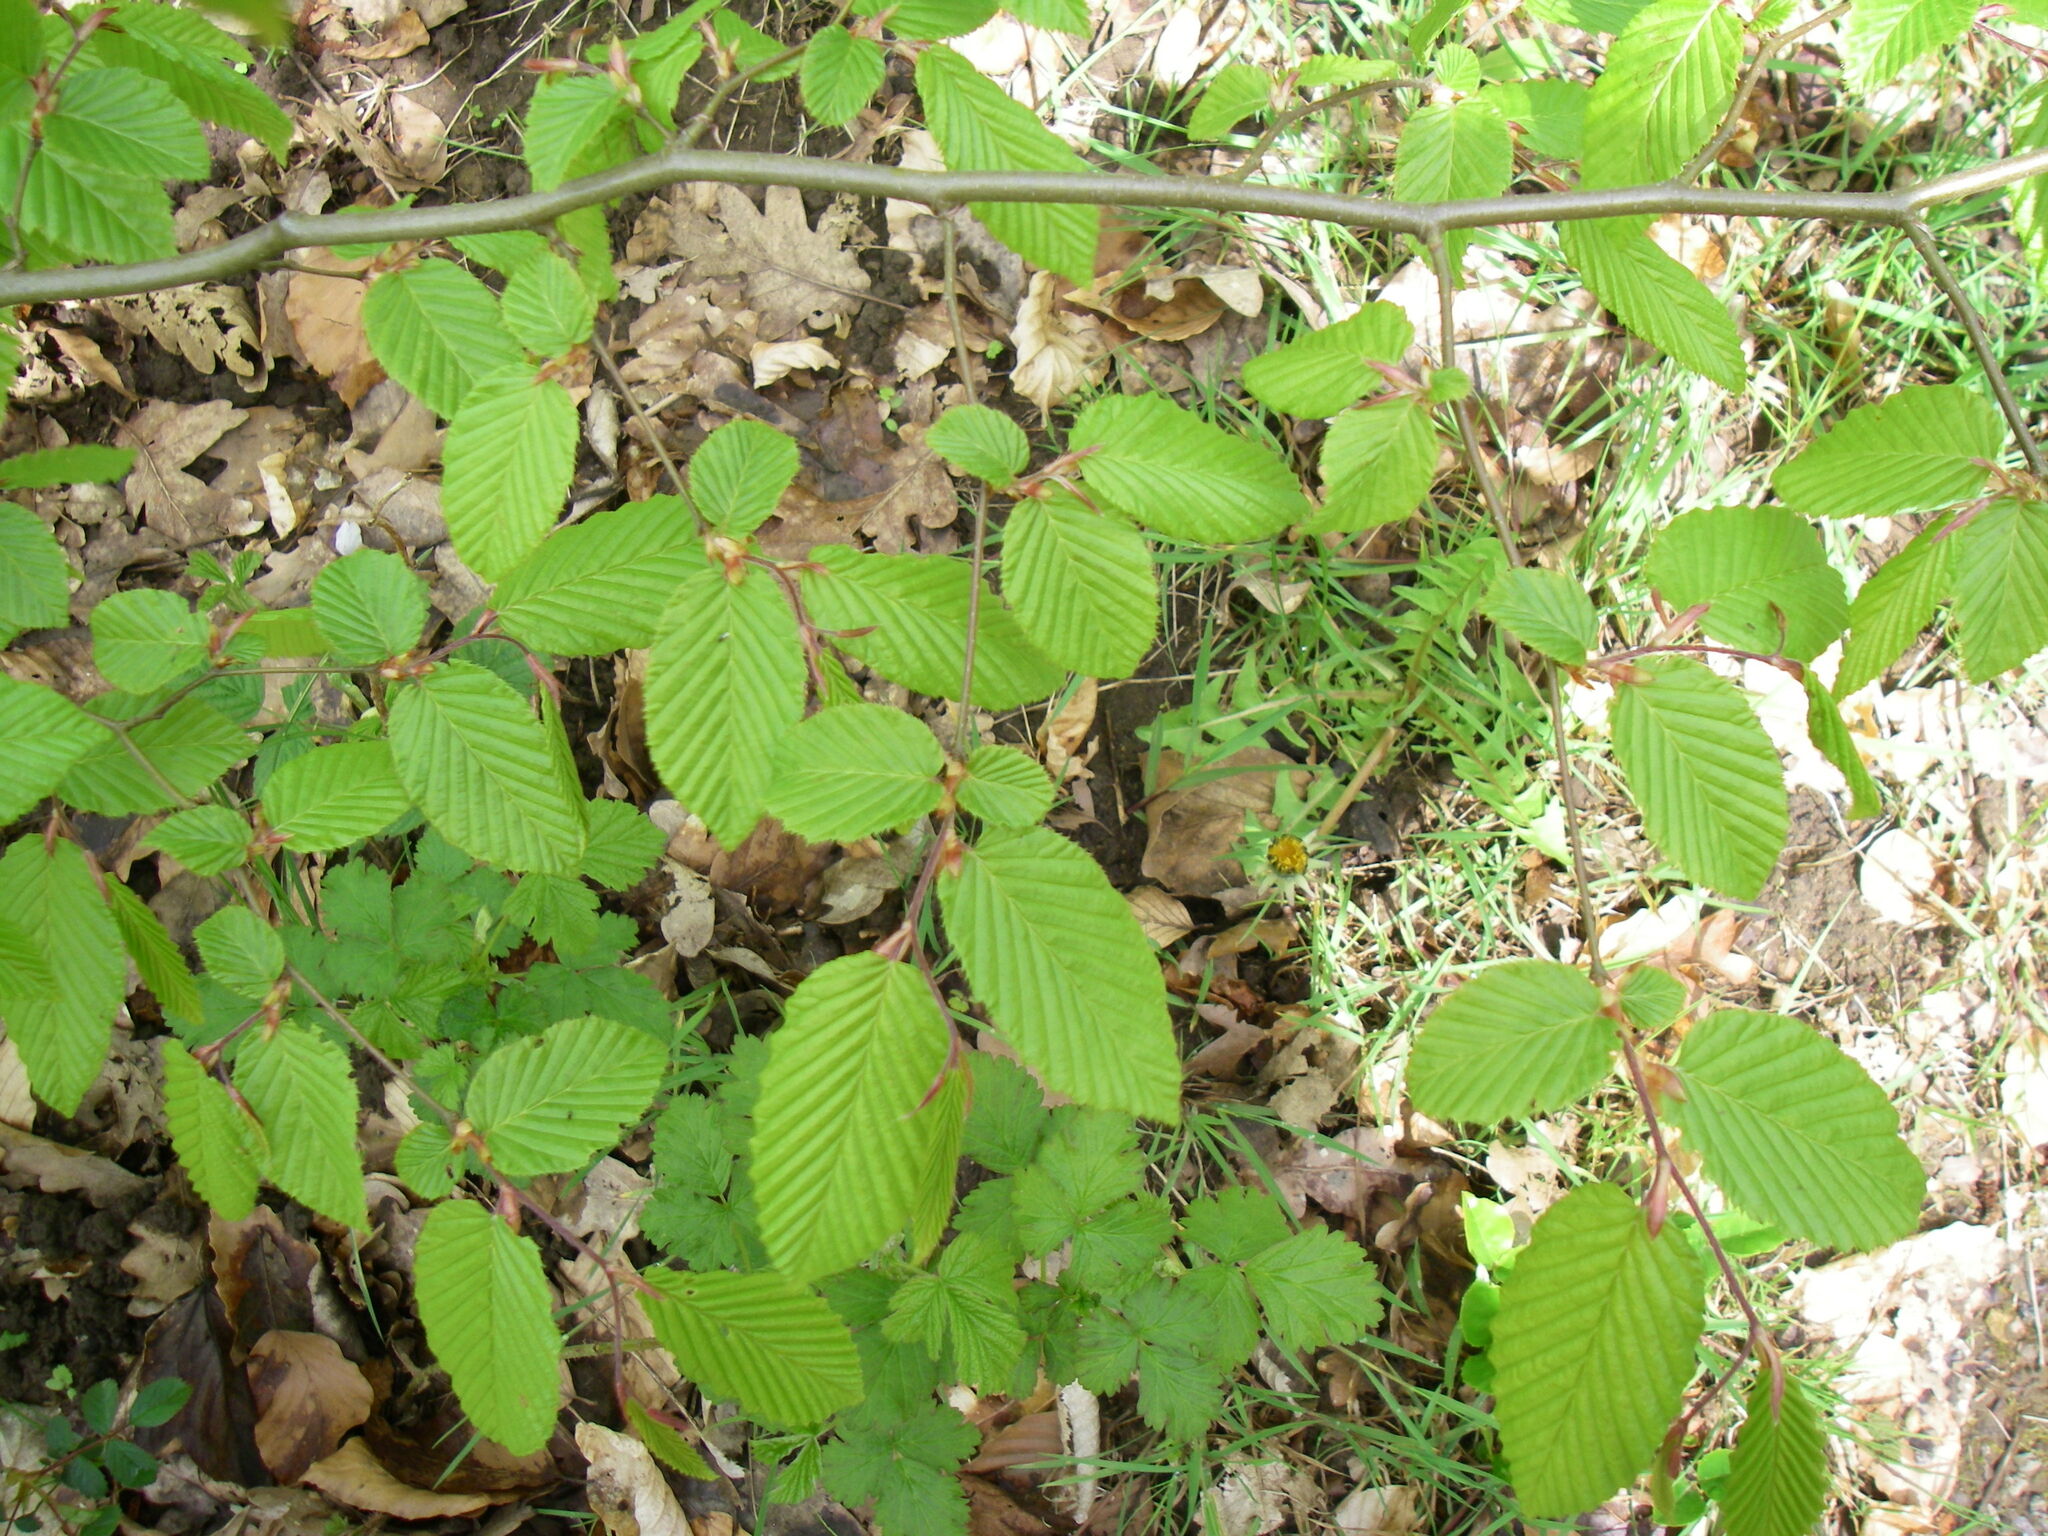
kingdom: Plantae
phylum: Tracheophyta
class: Magnoliopsida
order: Fagales
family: Betulaceae
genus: Carpinus
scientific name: Carpinus betulus
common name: Hornbeam
